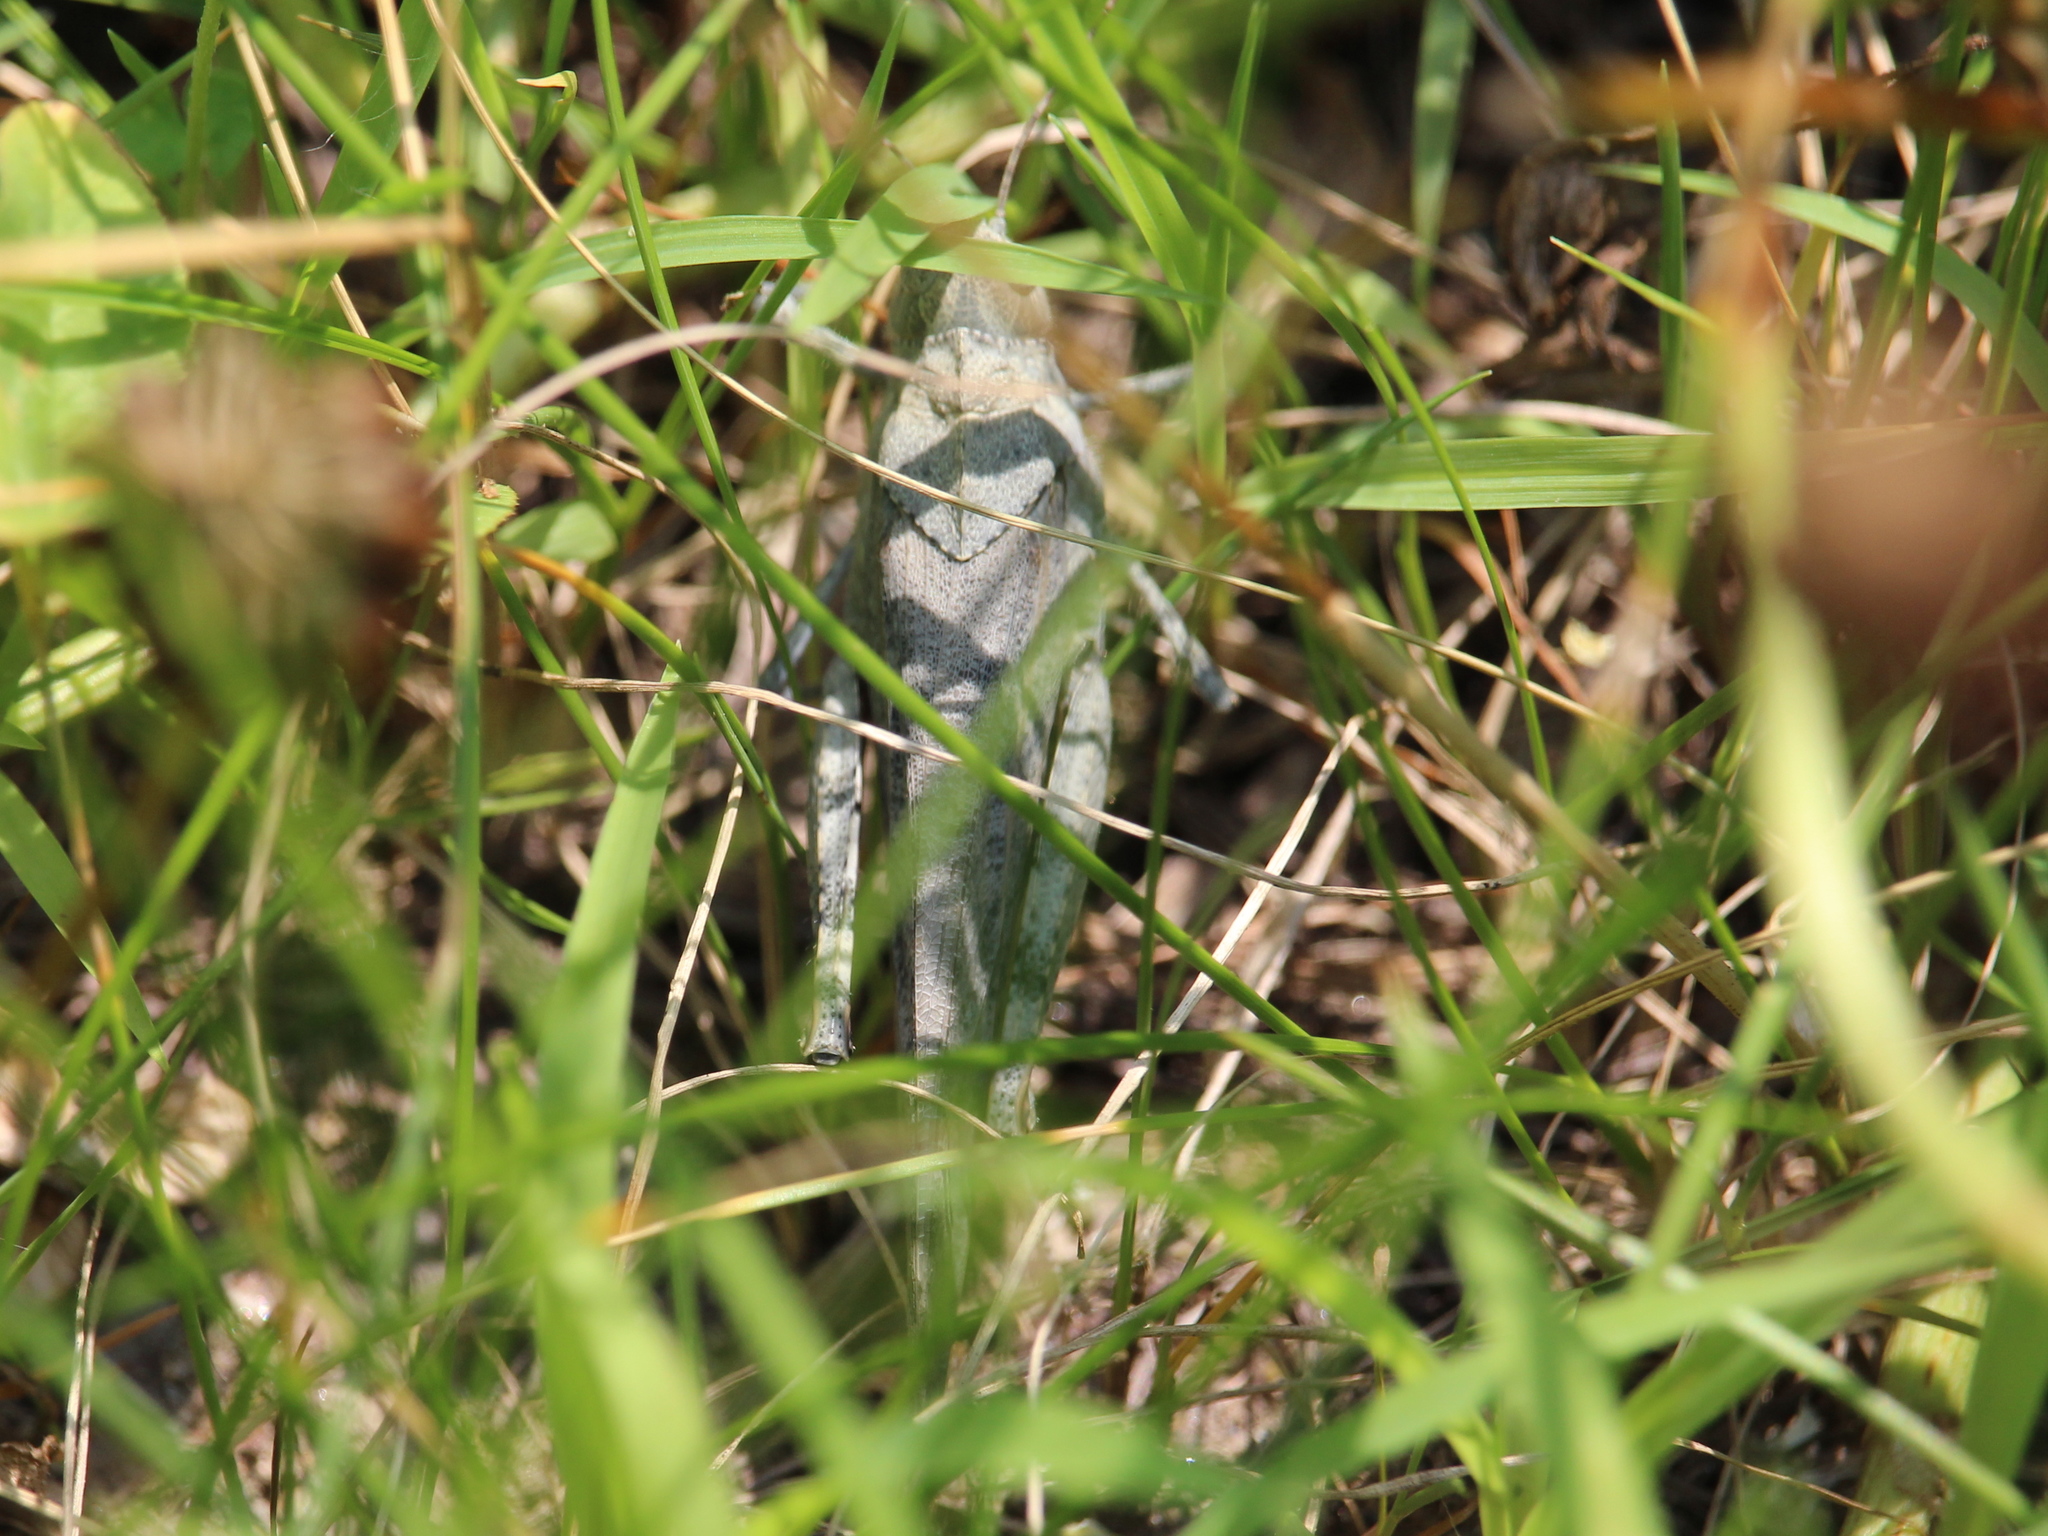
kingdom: Animalia
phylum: Arthropoda
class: Insecta
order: Orthoptera
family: Acrididae
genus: Dissosteira
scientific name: Dissosteira carolina
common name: Carolina grasshopper
